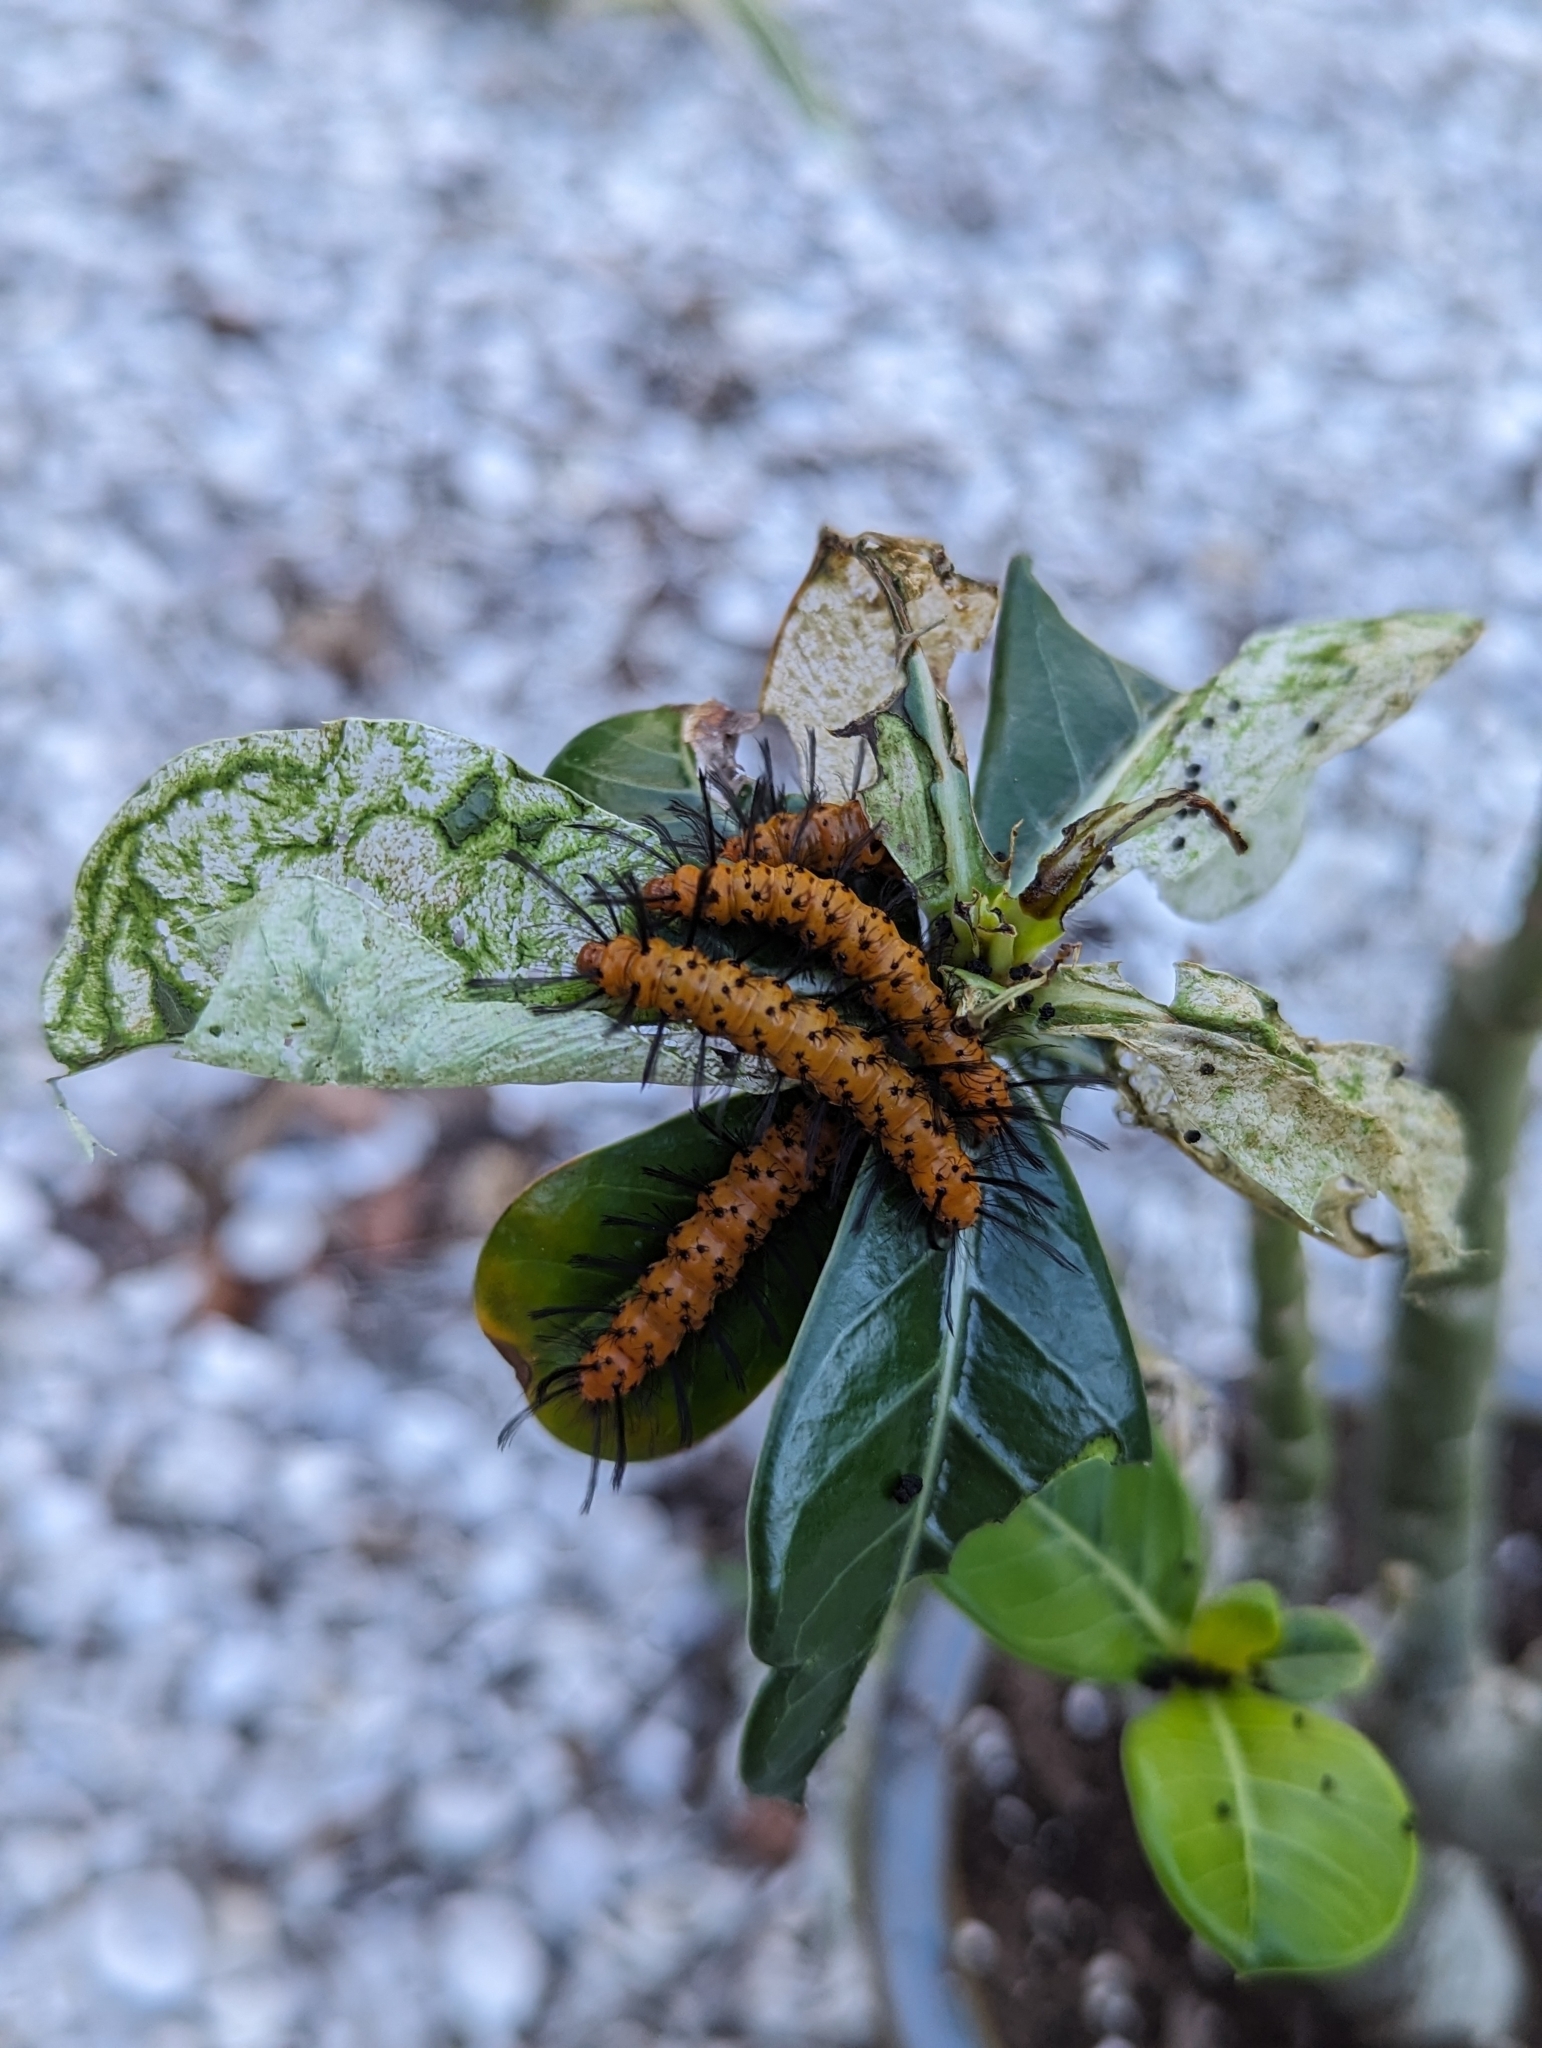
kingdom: Animalia
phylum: Arthropoda
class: Insecta
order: Lepidoptera
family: Erebidae
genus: Syntomeida
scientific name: Syntomeida epilais
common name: Polka-dot wasp moth
